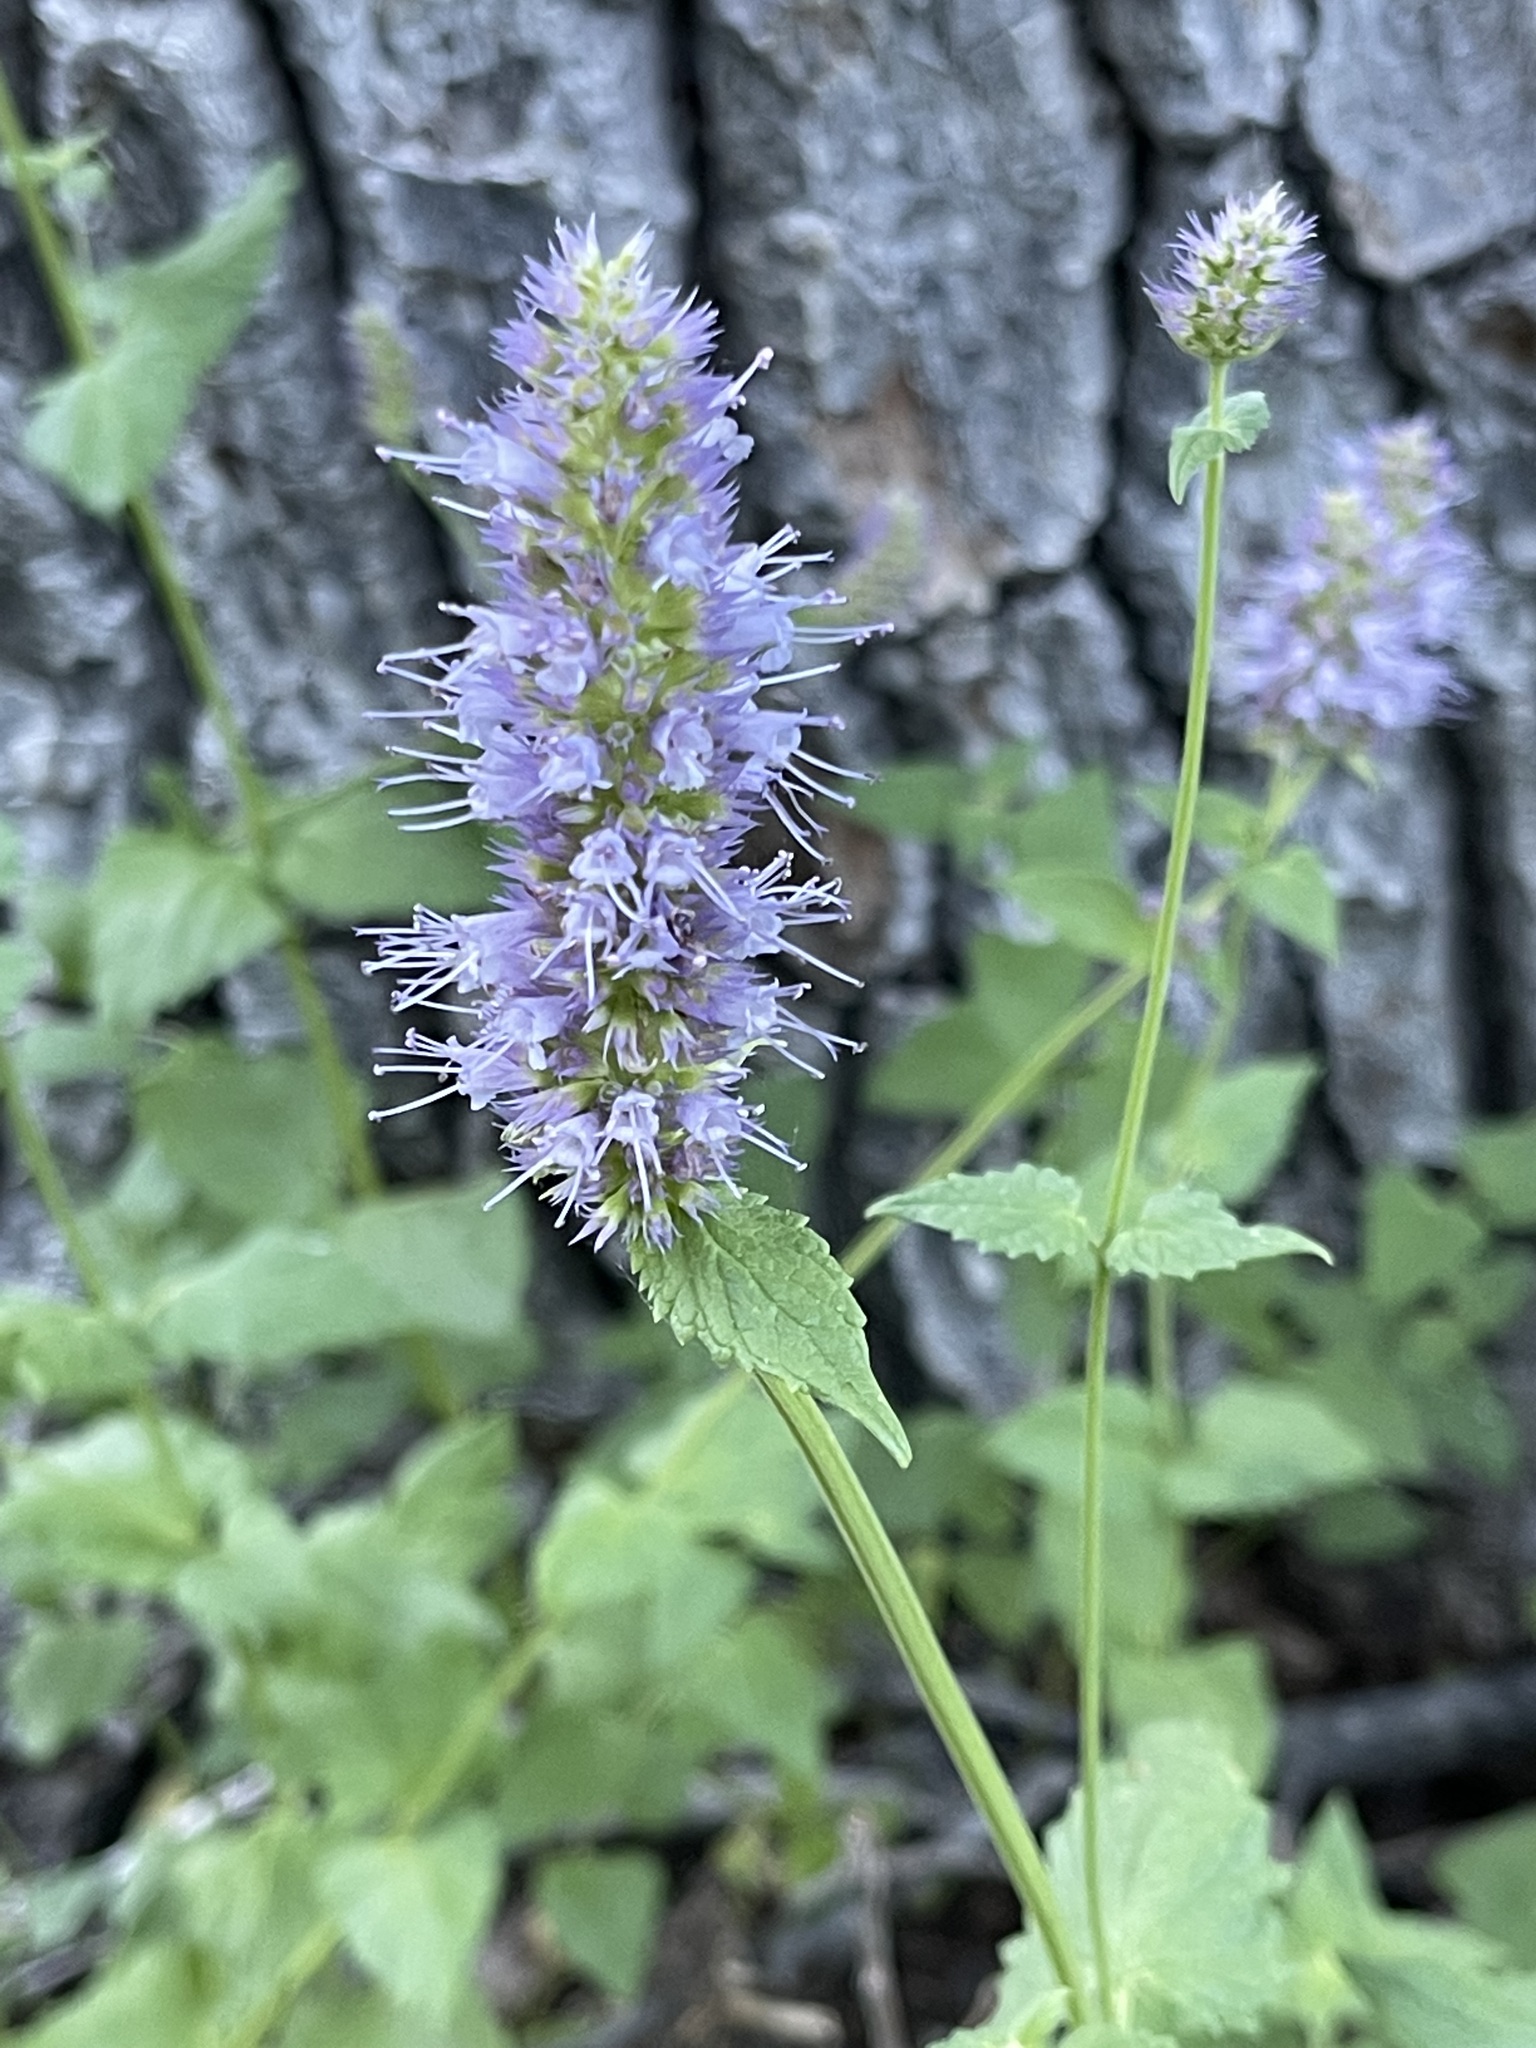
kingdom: Plantae
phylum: Tracheophyta
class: Magnoliopsida
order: Lamiales
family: Lamiaceae
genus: Agastache
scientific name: Agastache urticifolia
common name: Horsemint giant hyssop
